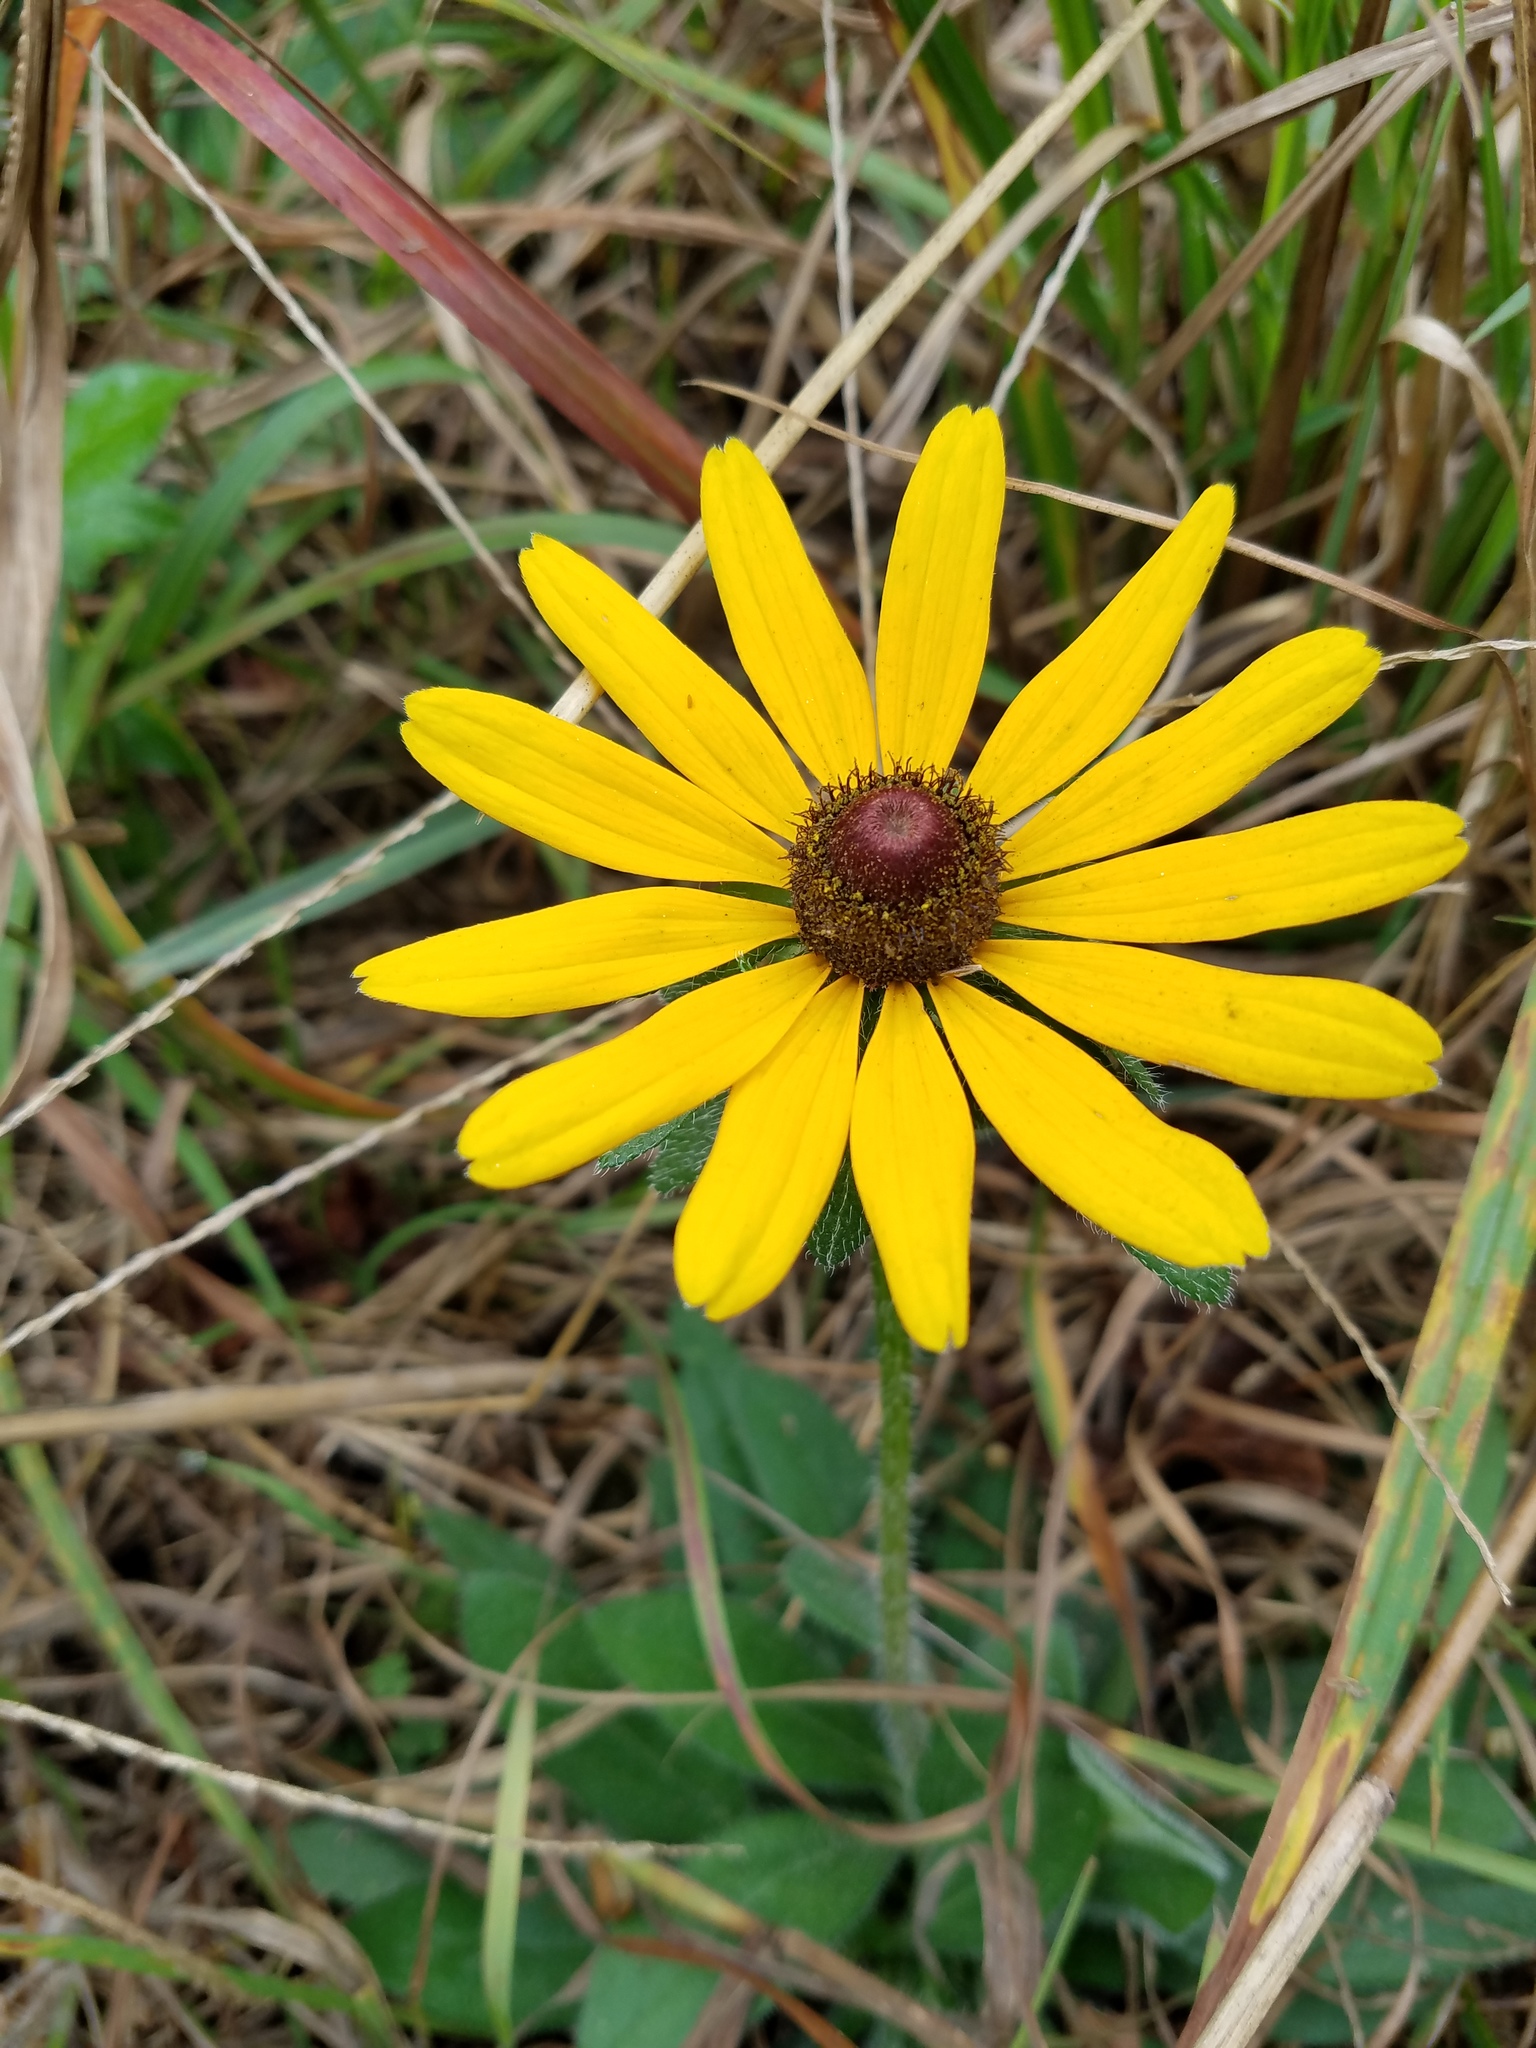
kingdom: Plantae
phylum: Tracheophyta
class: Magnoliopsida
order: Asterales
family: Asteraceae
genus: Rudbeckia
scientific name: Rudbeckia hirta
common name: Black-eyed-susan
